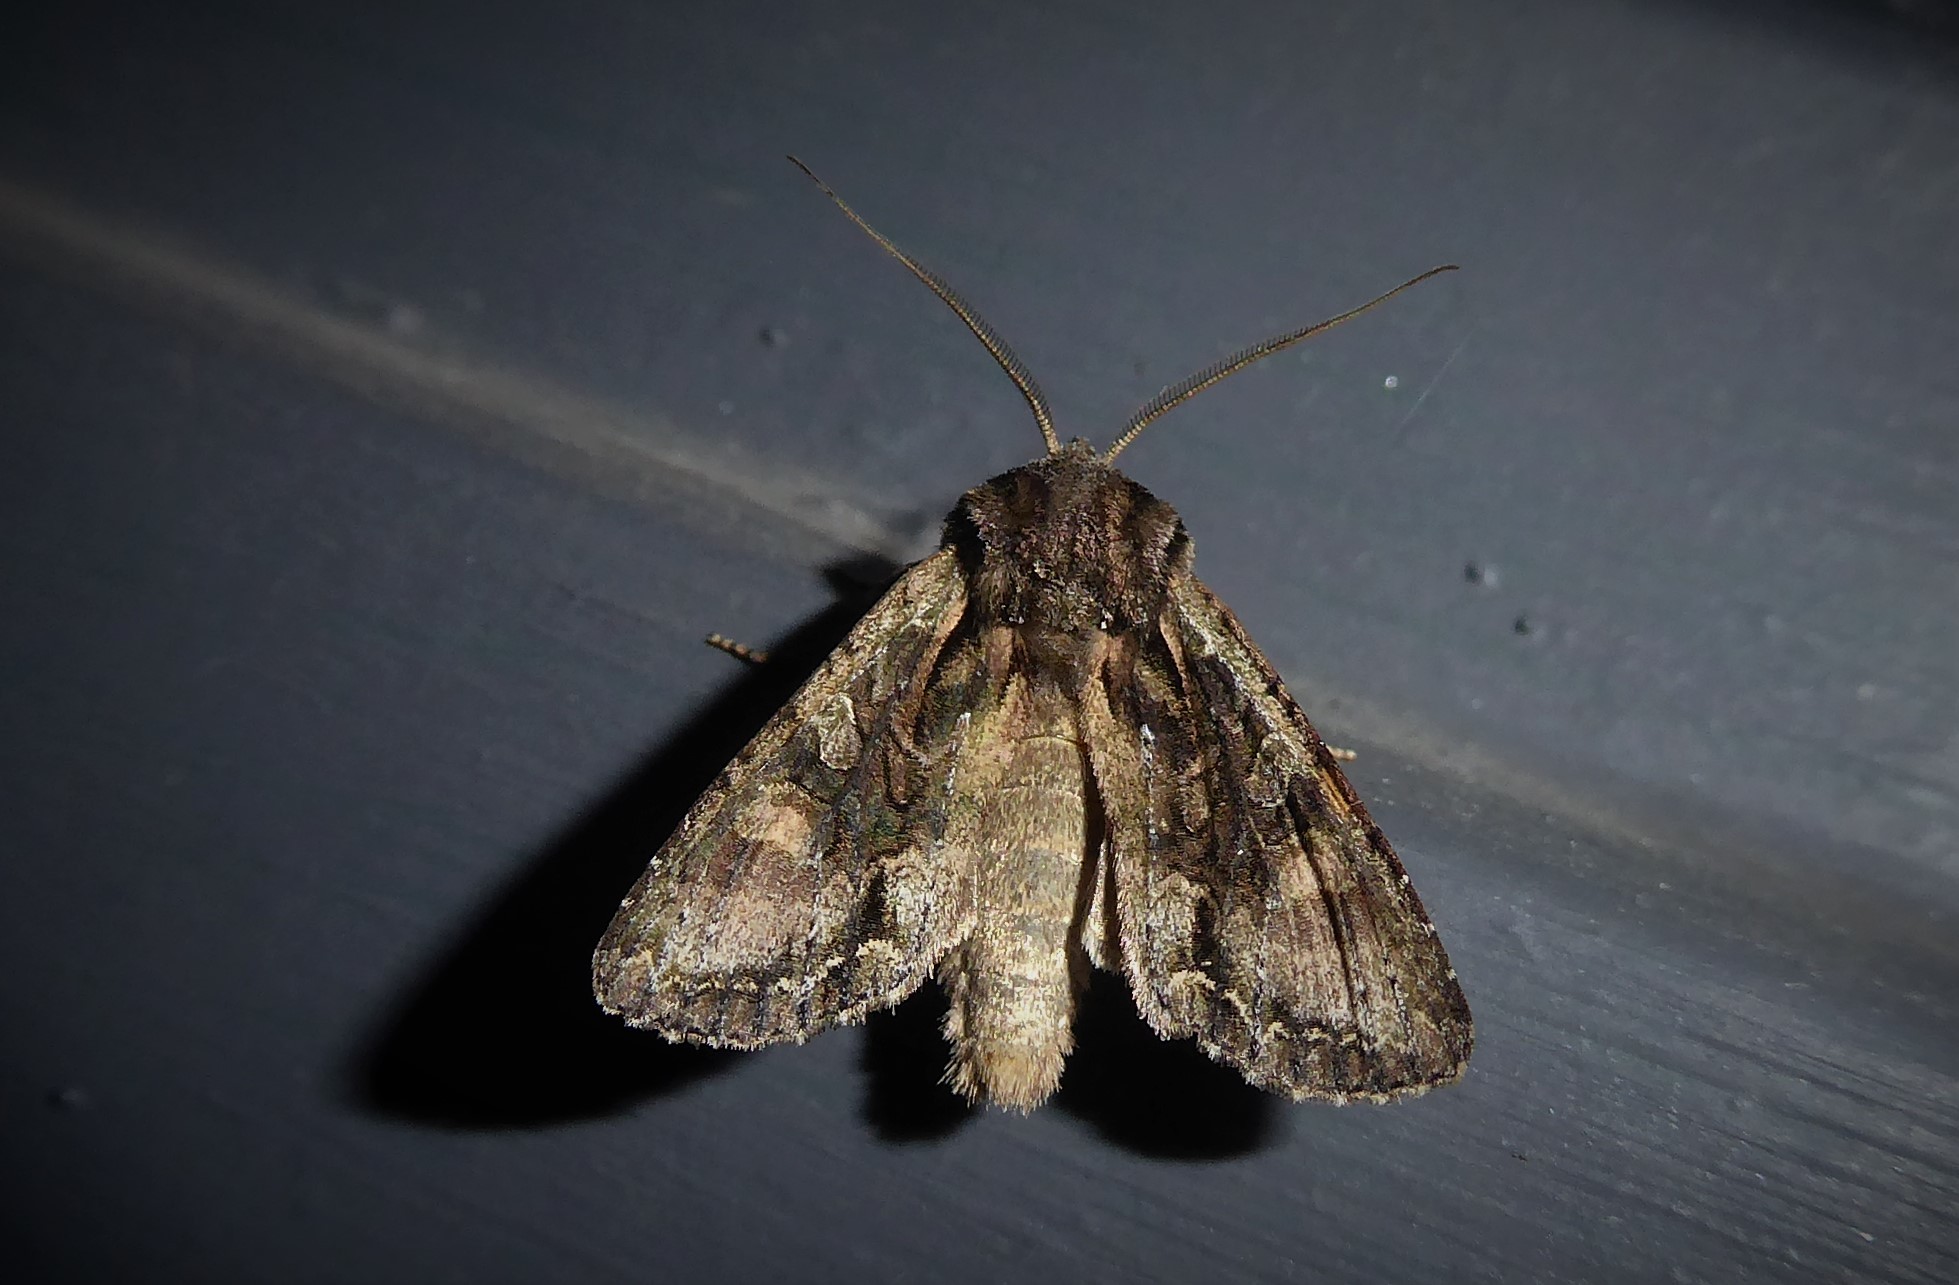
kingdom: Animalia
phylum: Arthropoda
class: Insecta
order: Lepidoptera
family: Noctuidae
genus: Ichneutica
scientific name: Ichneutica mutans
